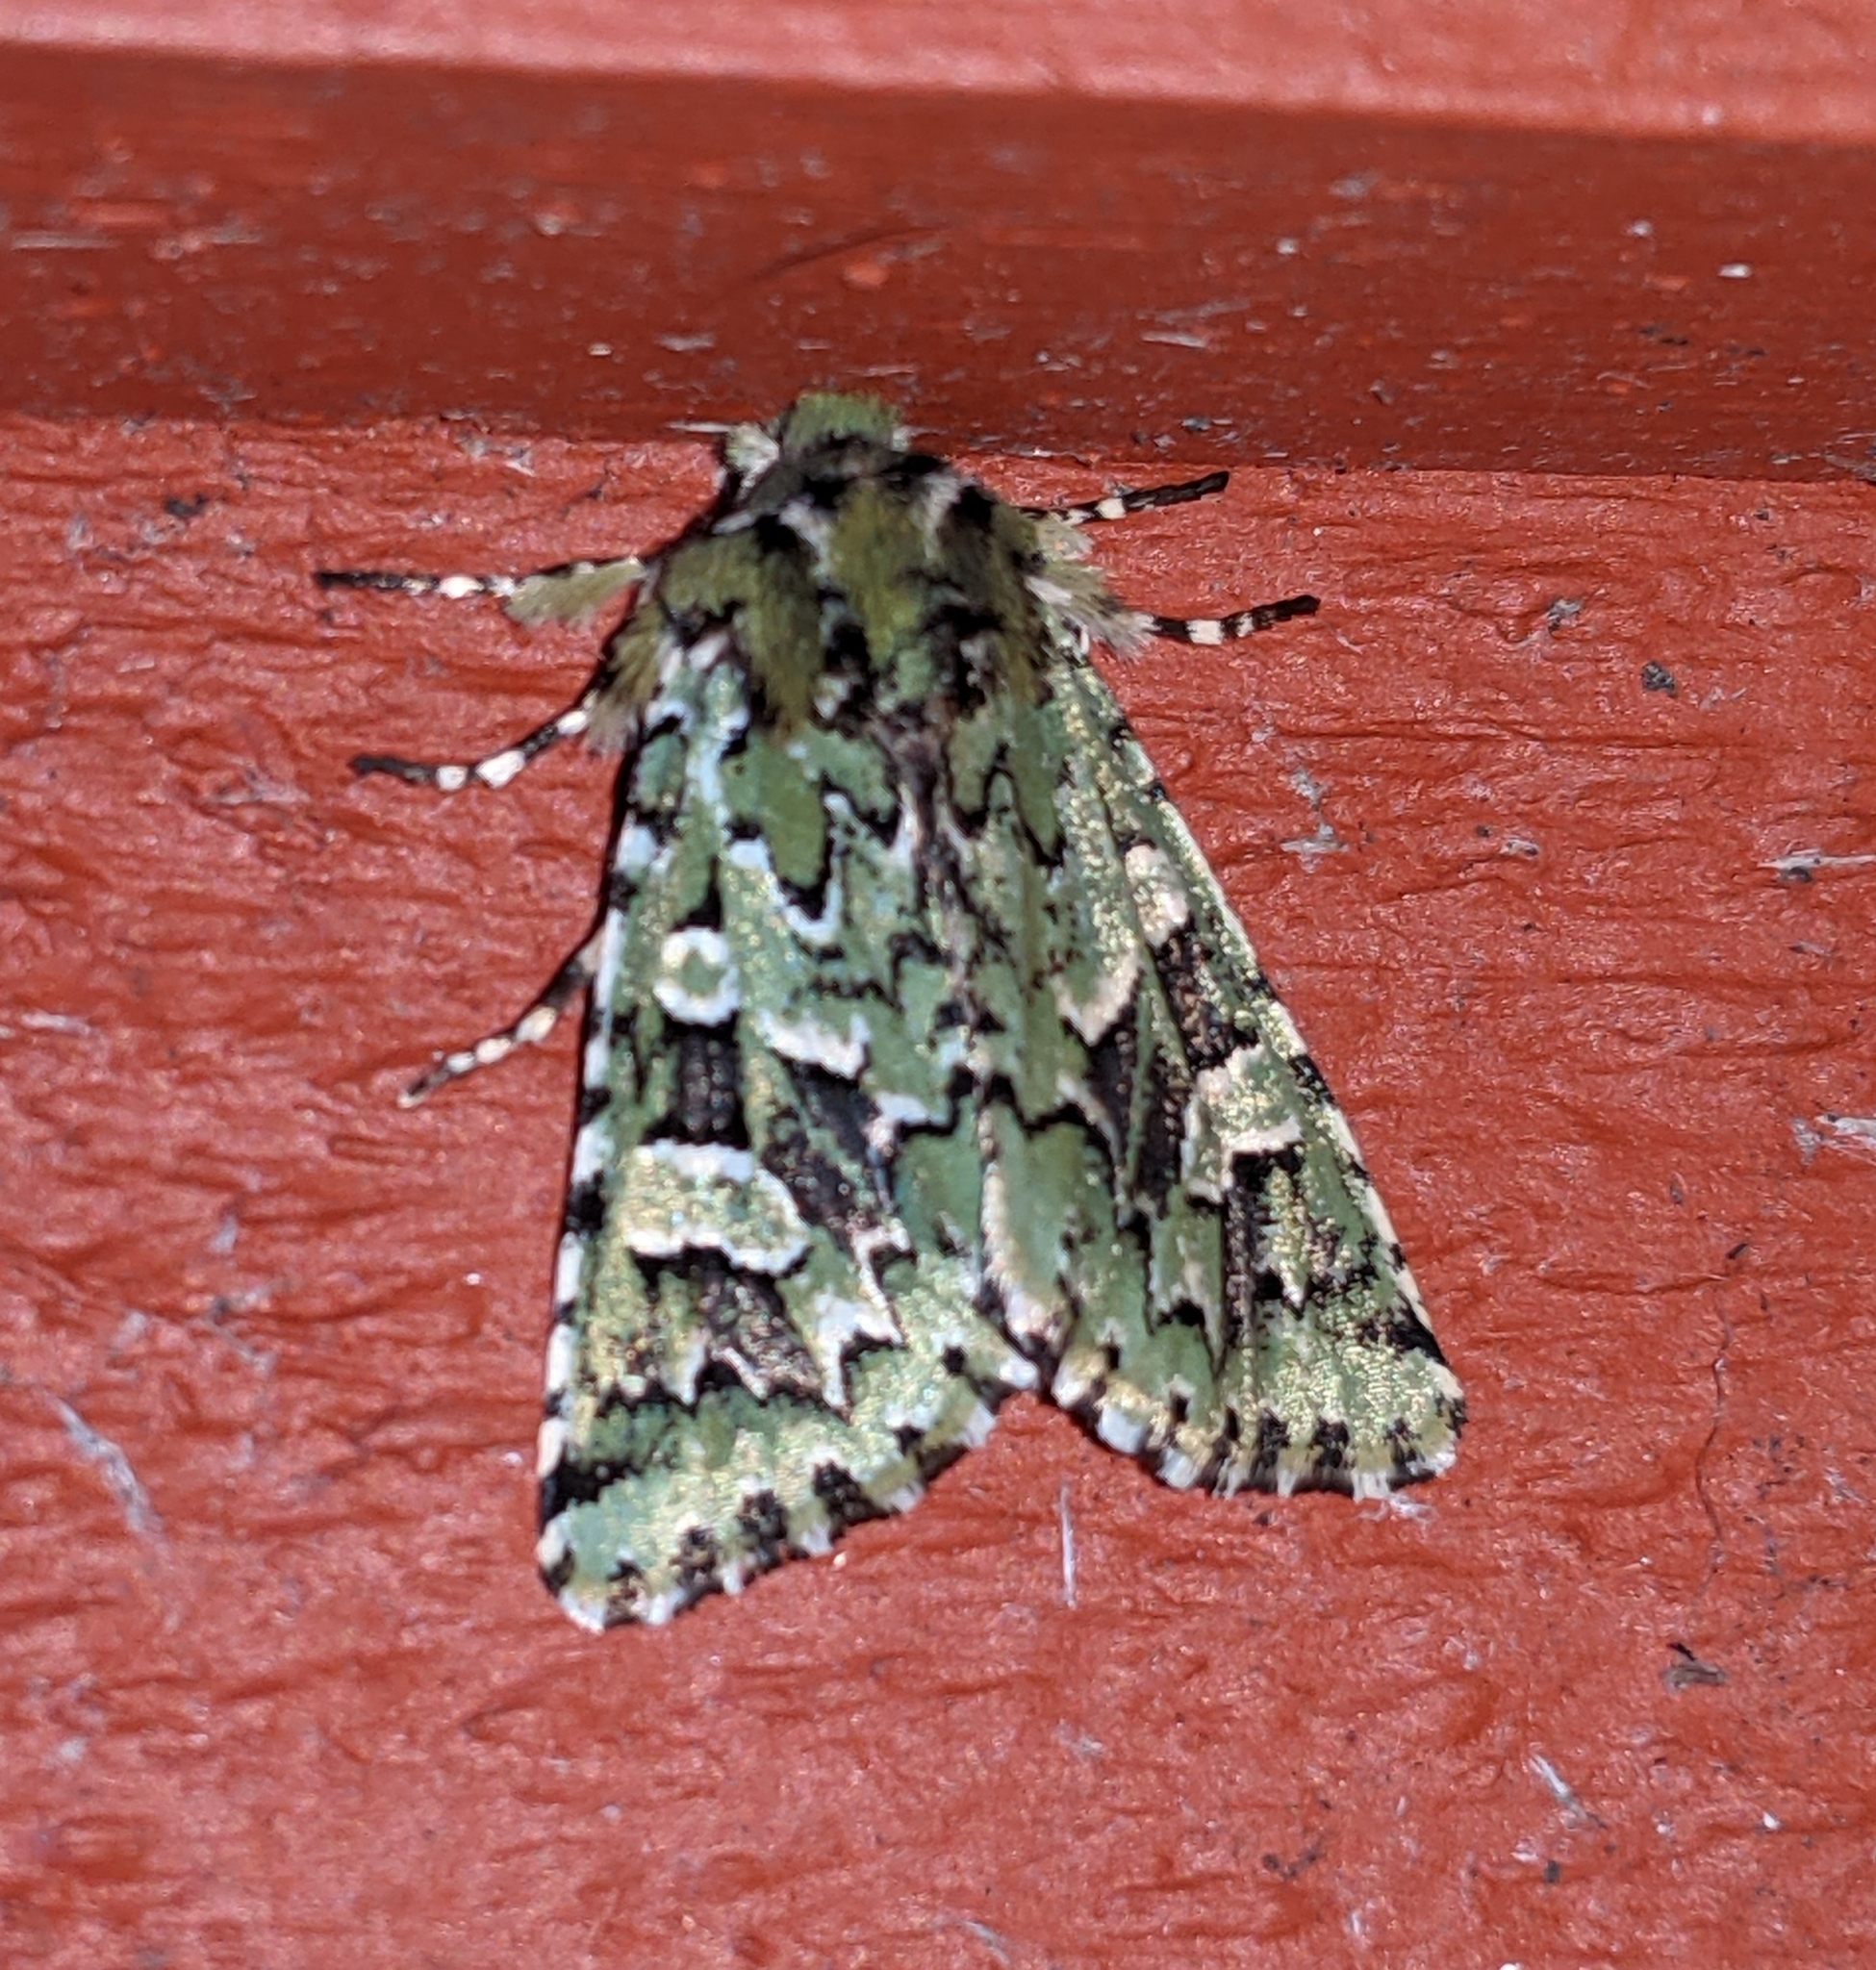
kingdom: Animalia
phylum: Arthropoda
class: Insecta
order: Lepidoptera
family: Noctuidae
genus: Feralia
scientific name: Feralia comstocki
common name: Comstock's sallow
